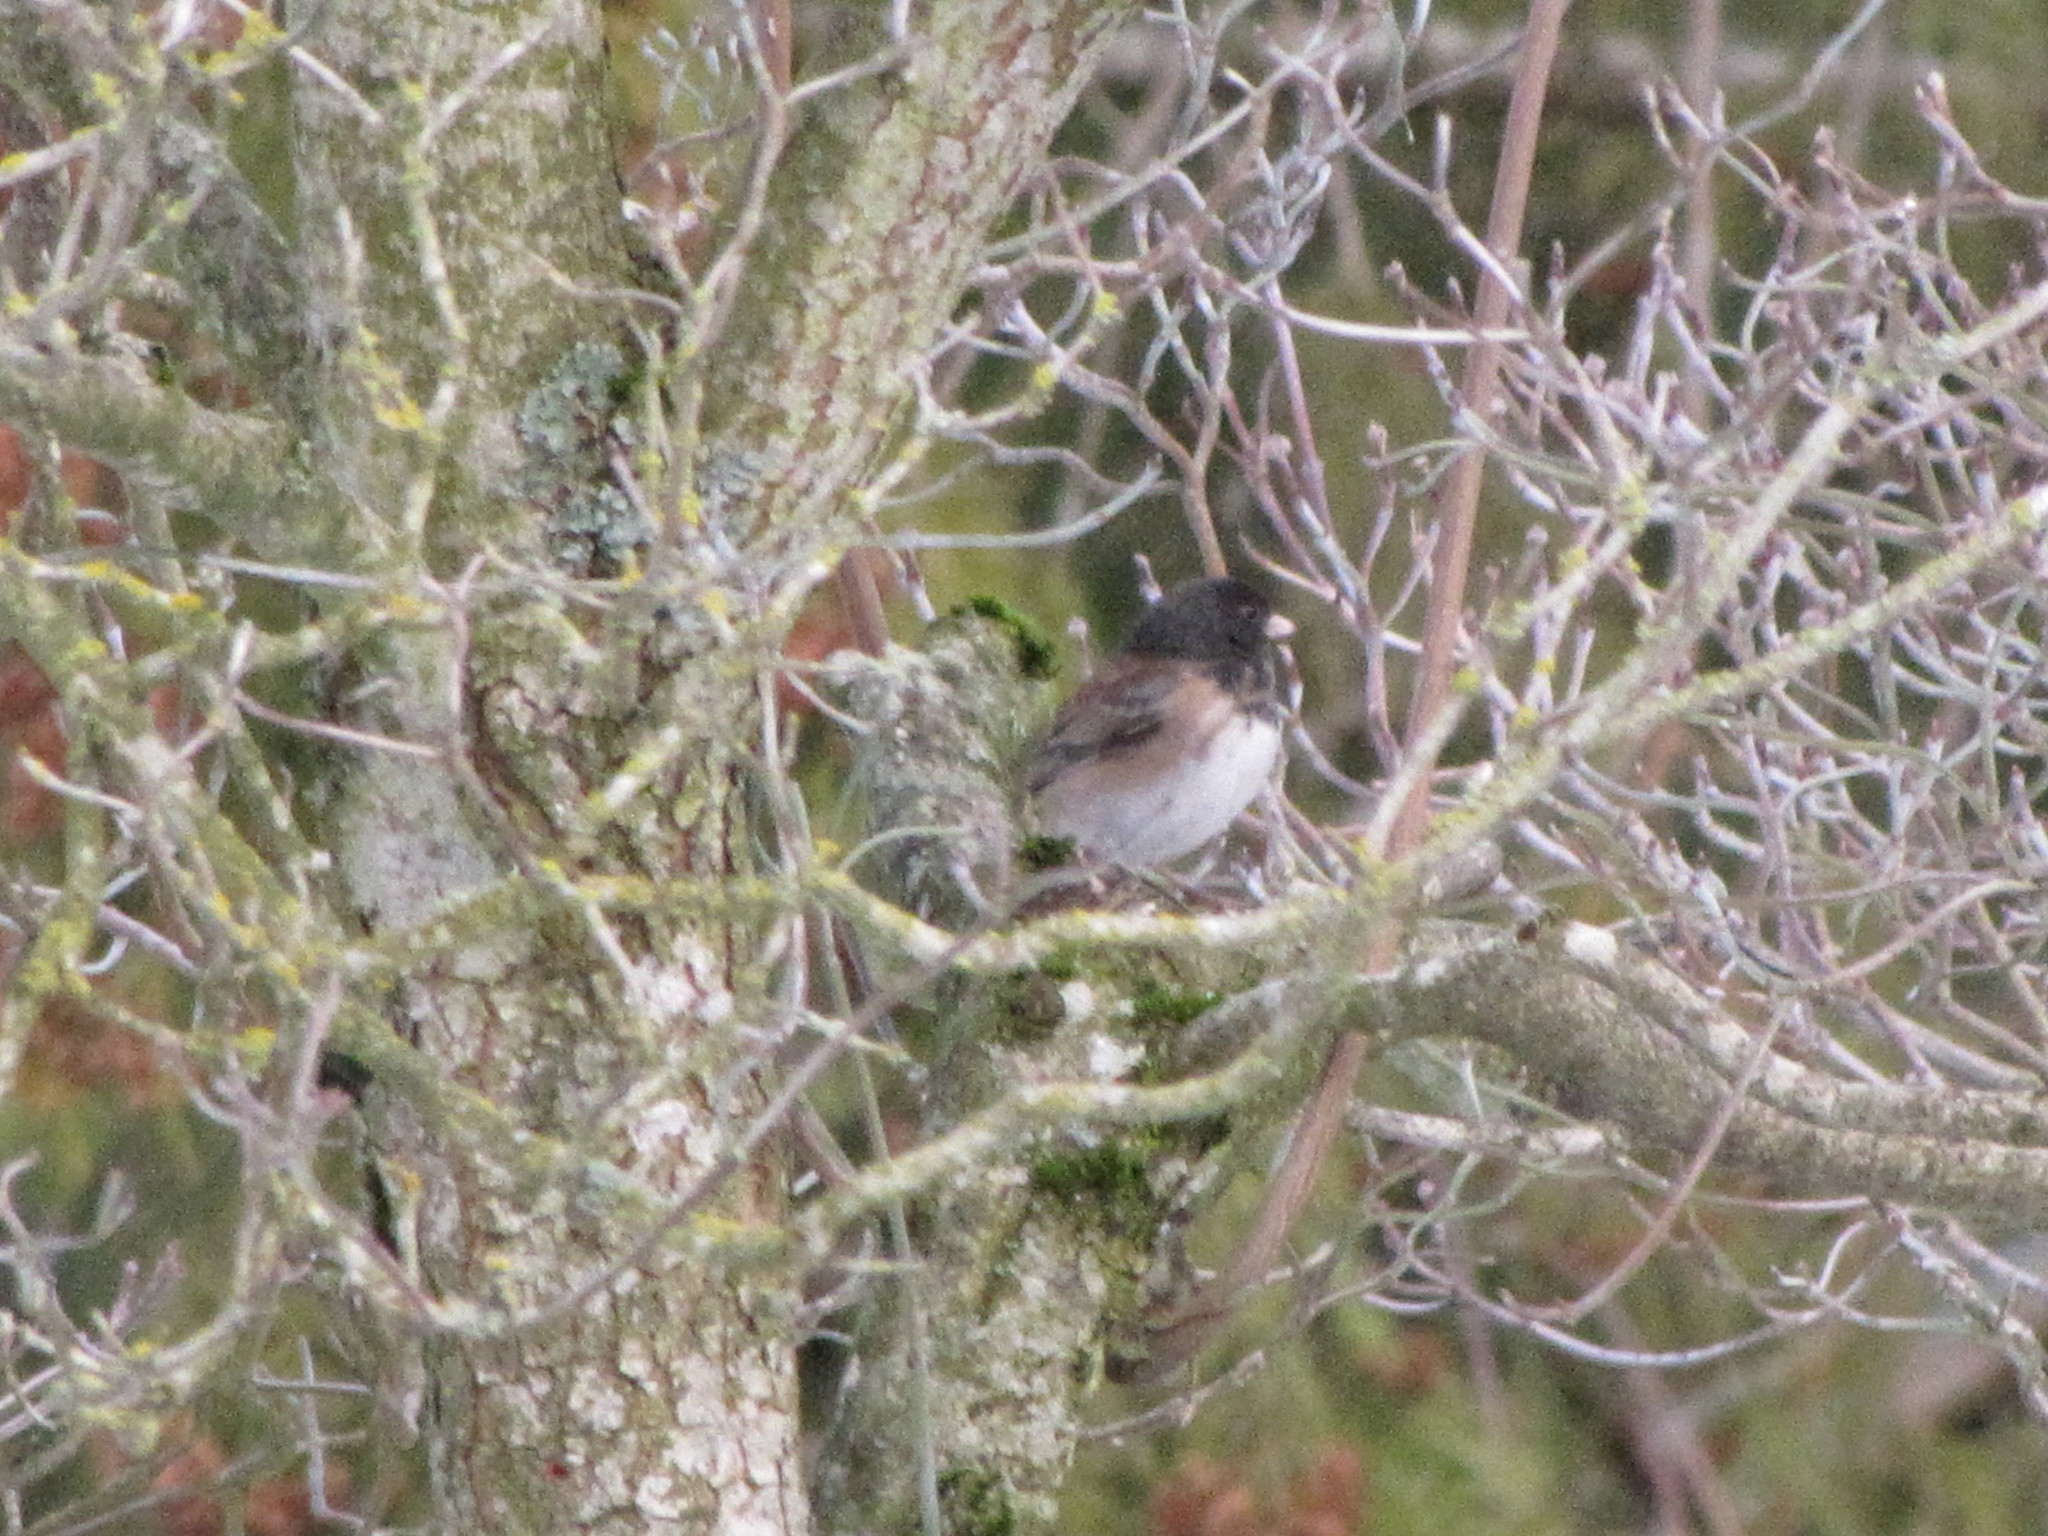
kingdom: Animalia
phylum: Chordata
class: Aves
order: Passeriformes
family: Passerellidae
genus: Junco
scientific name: Junco hyemalis
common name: Dark-eyed junco
